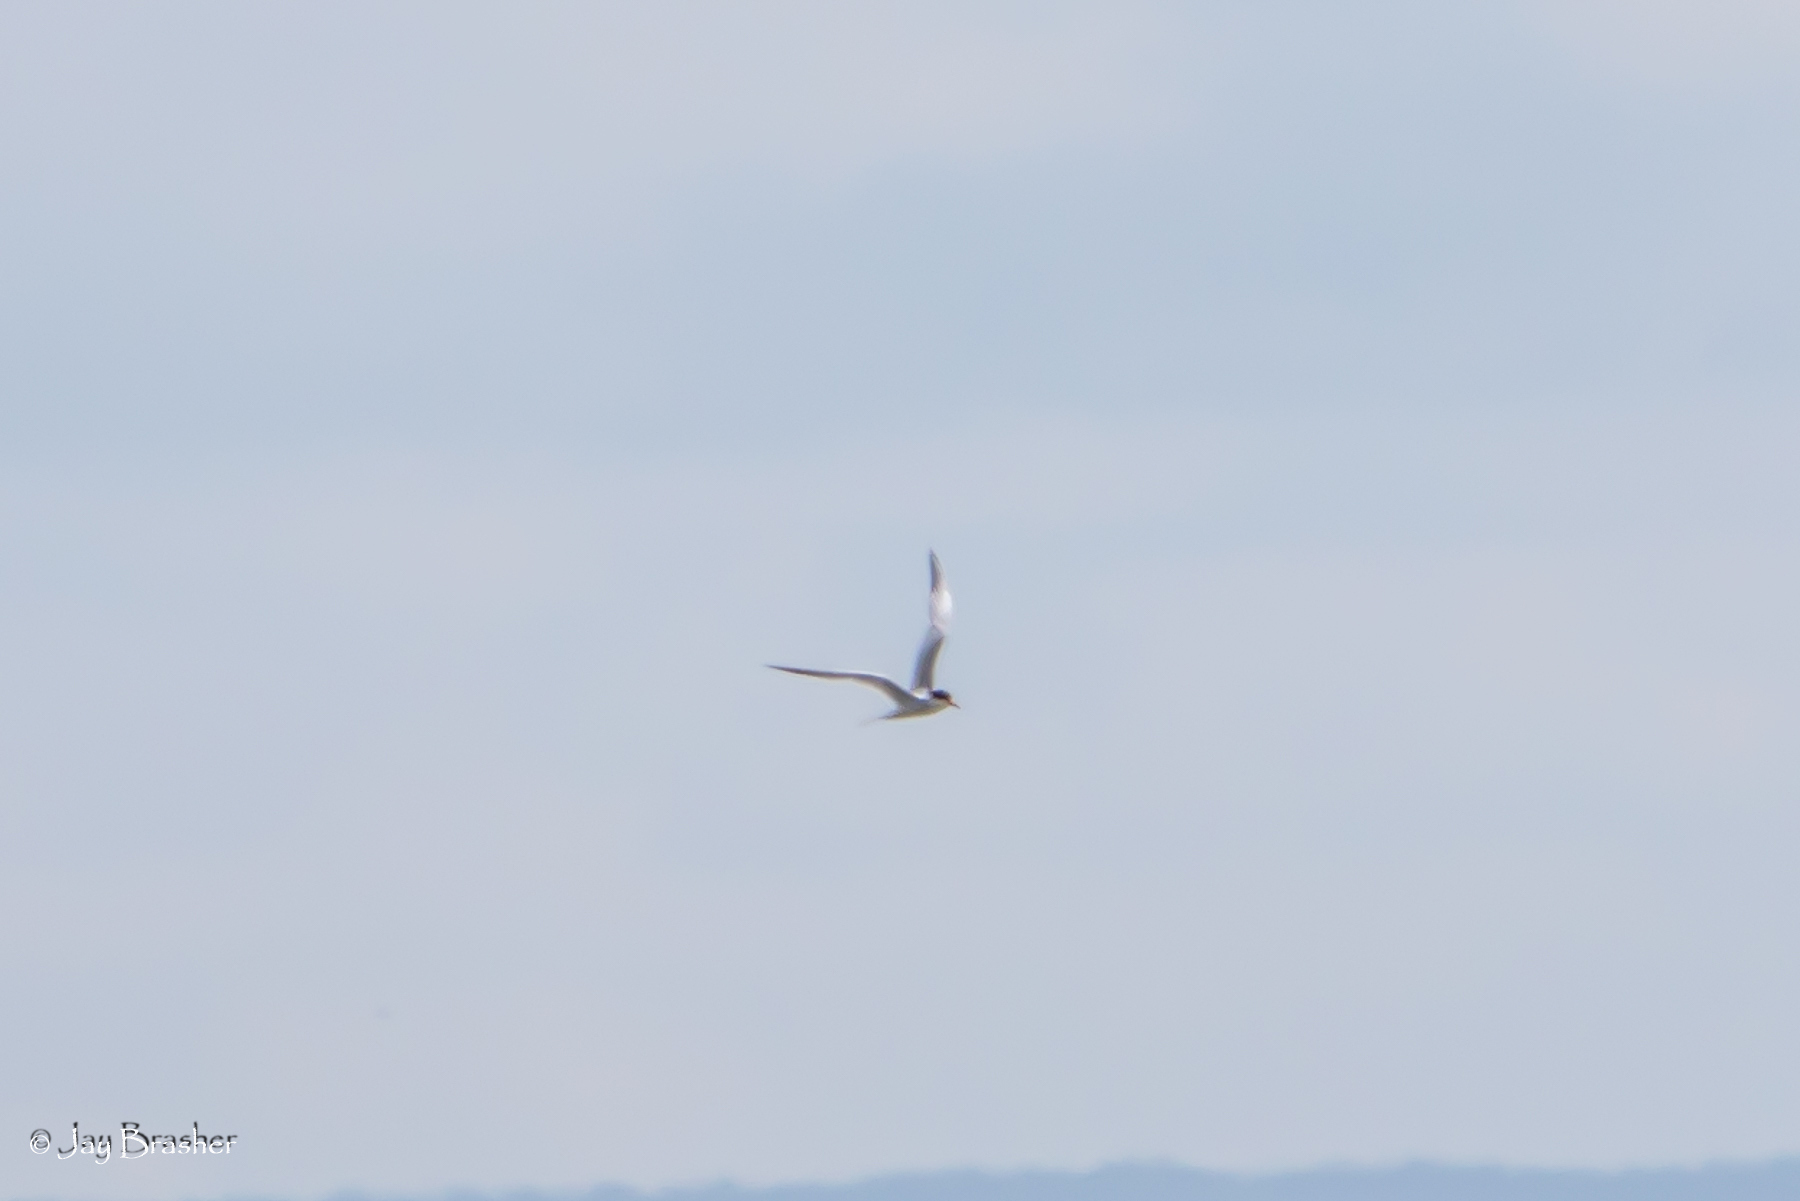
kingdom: Animalia
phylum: Chordata
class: Aves
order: Charadriiformes
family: Laridae
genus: Sterna
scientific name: Sterna forsteri
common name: Forster's tern
